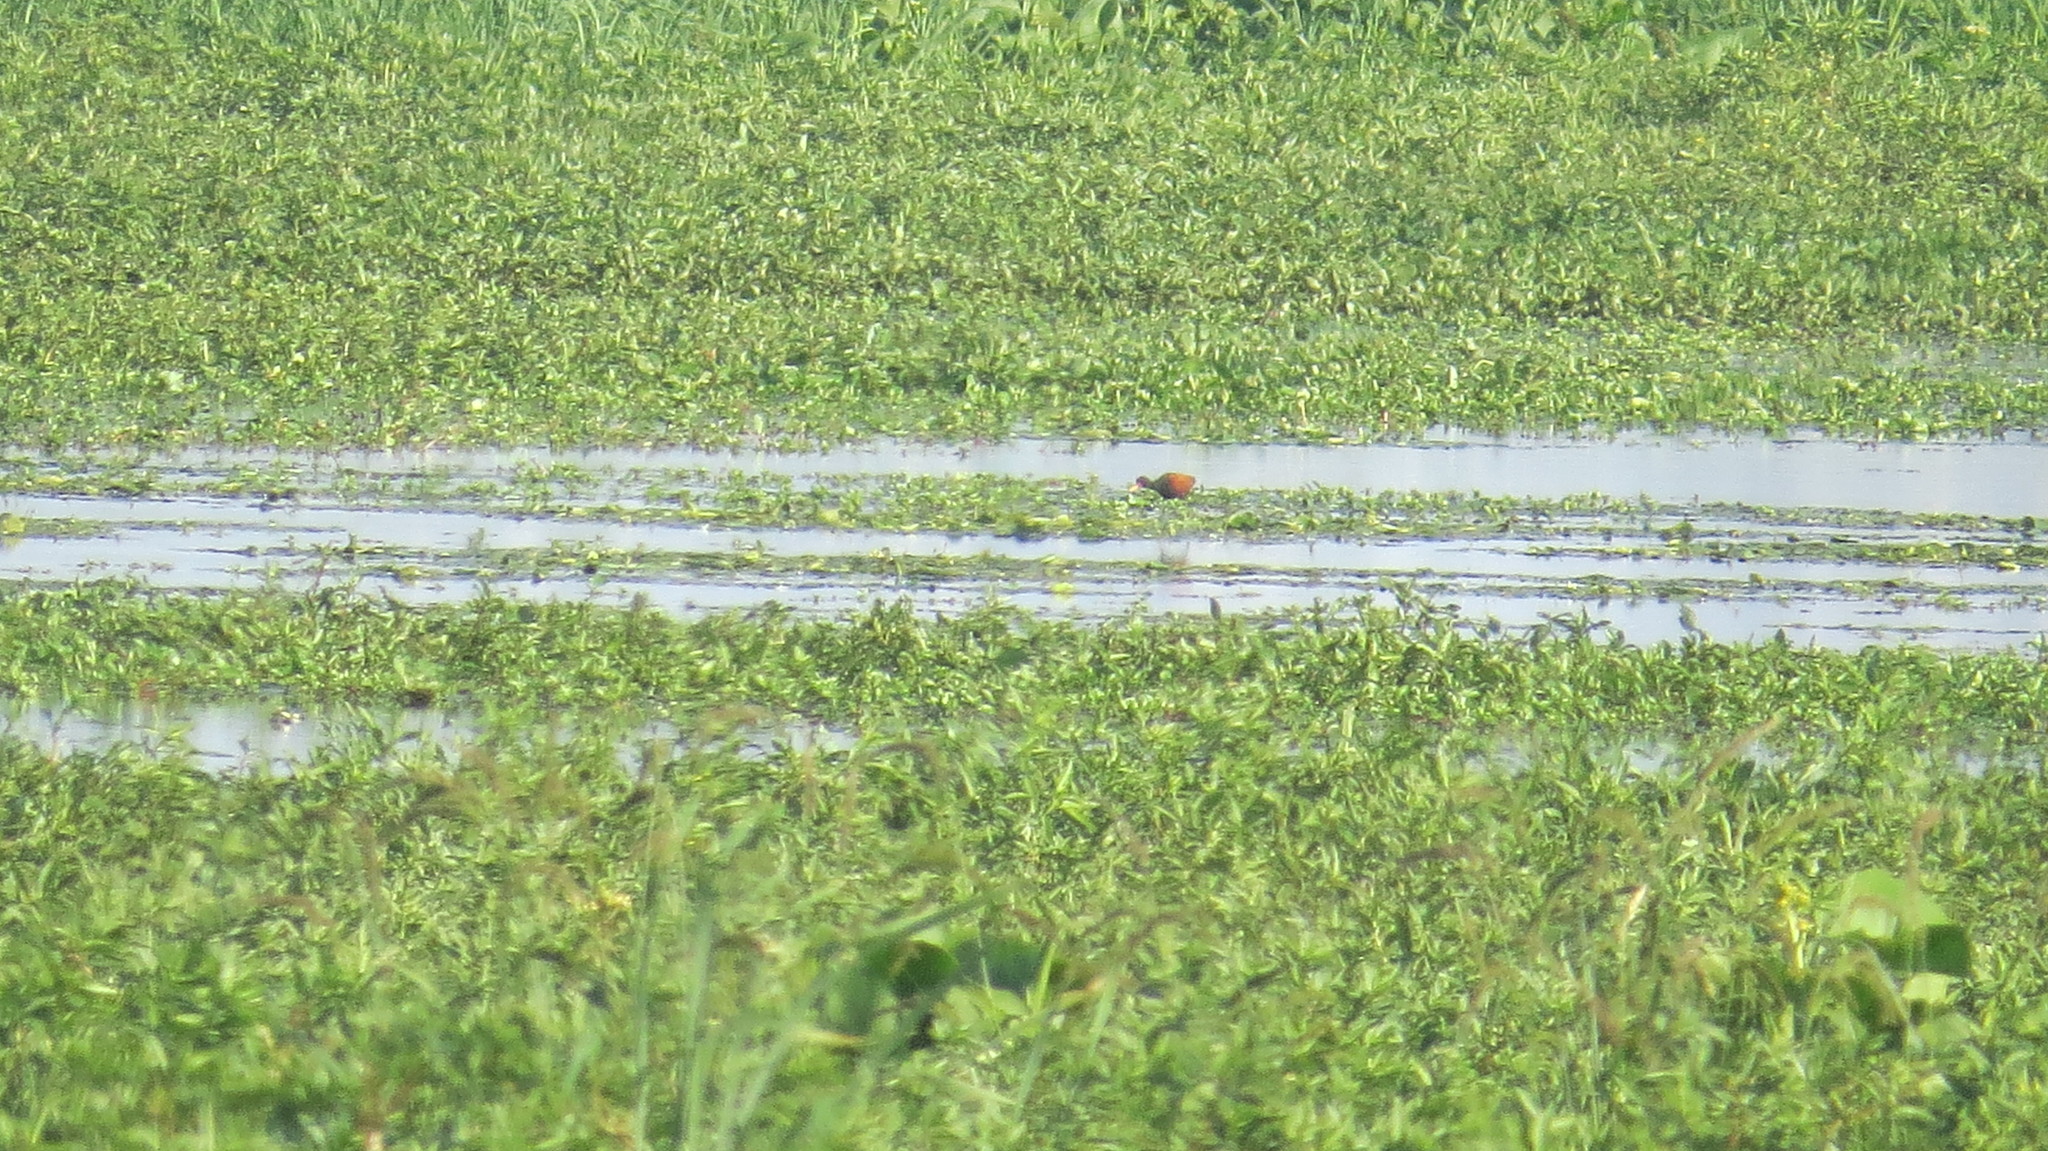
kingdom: Animalia
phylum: Chordata
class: Aves
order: Charadriiformes
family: Jacanidae
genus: Jacana
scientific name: Jacana jacana
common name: Wattled jacana
